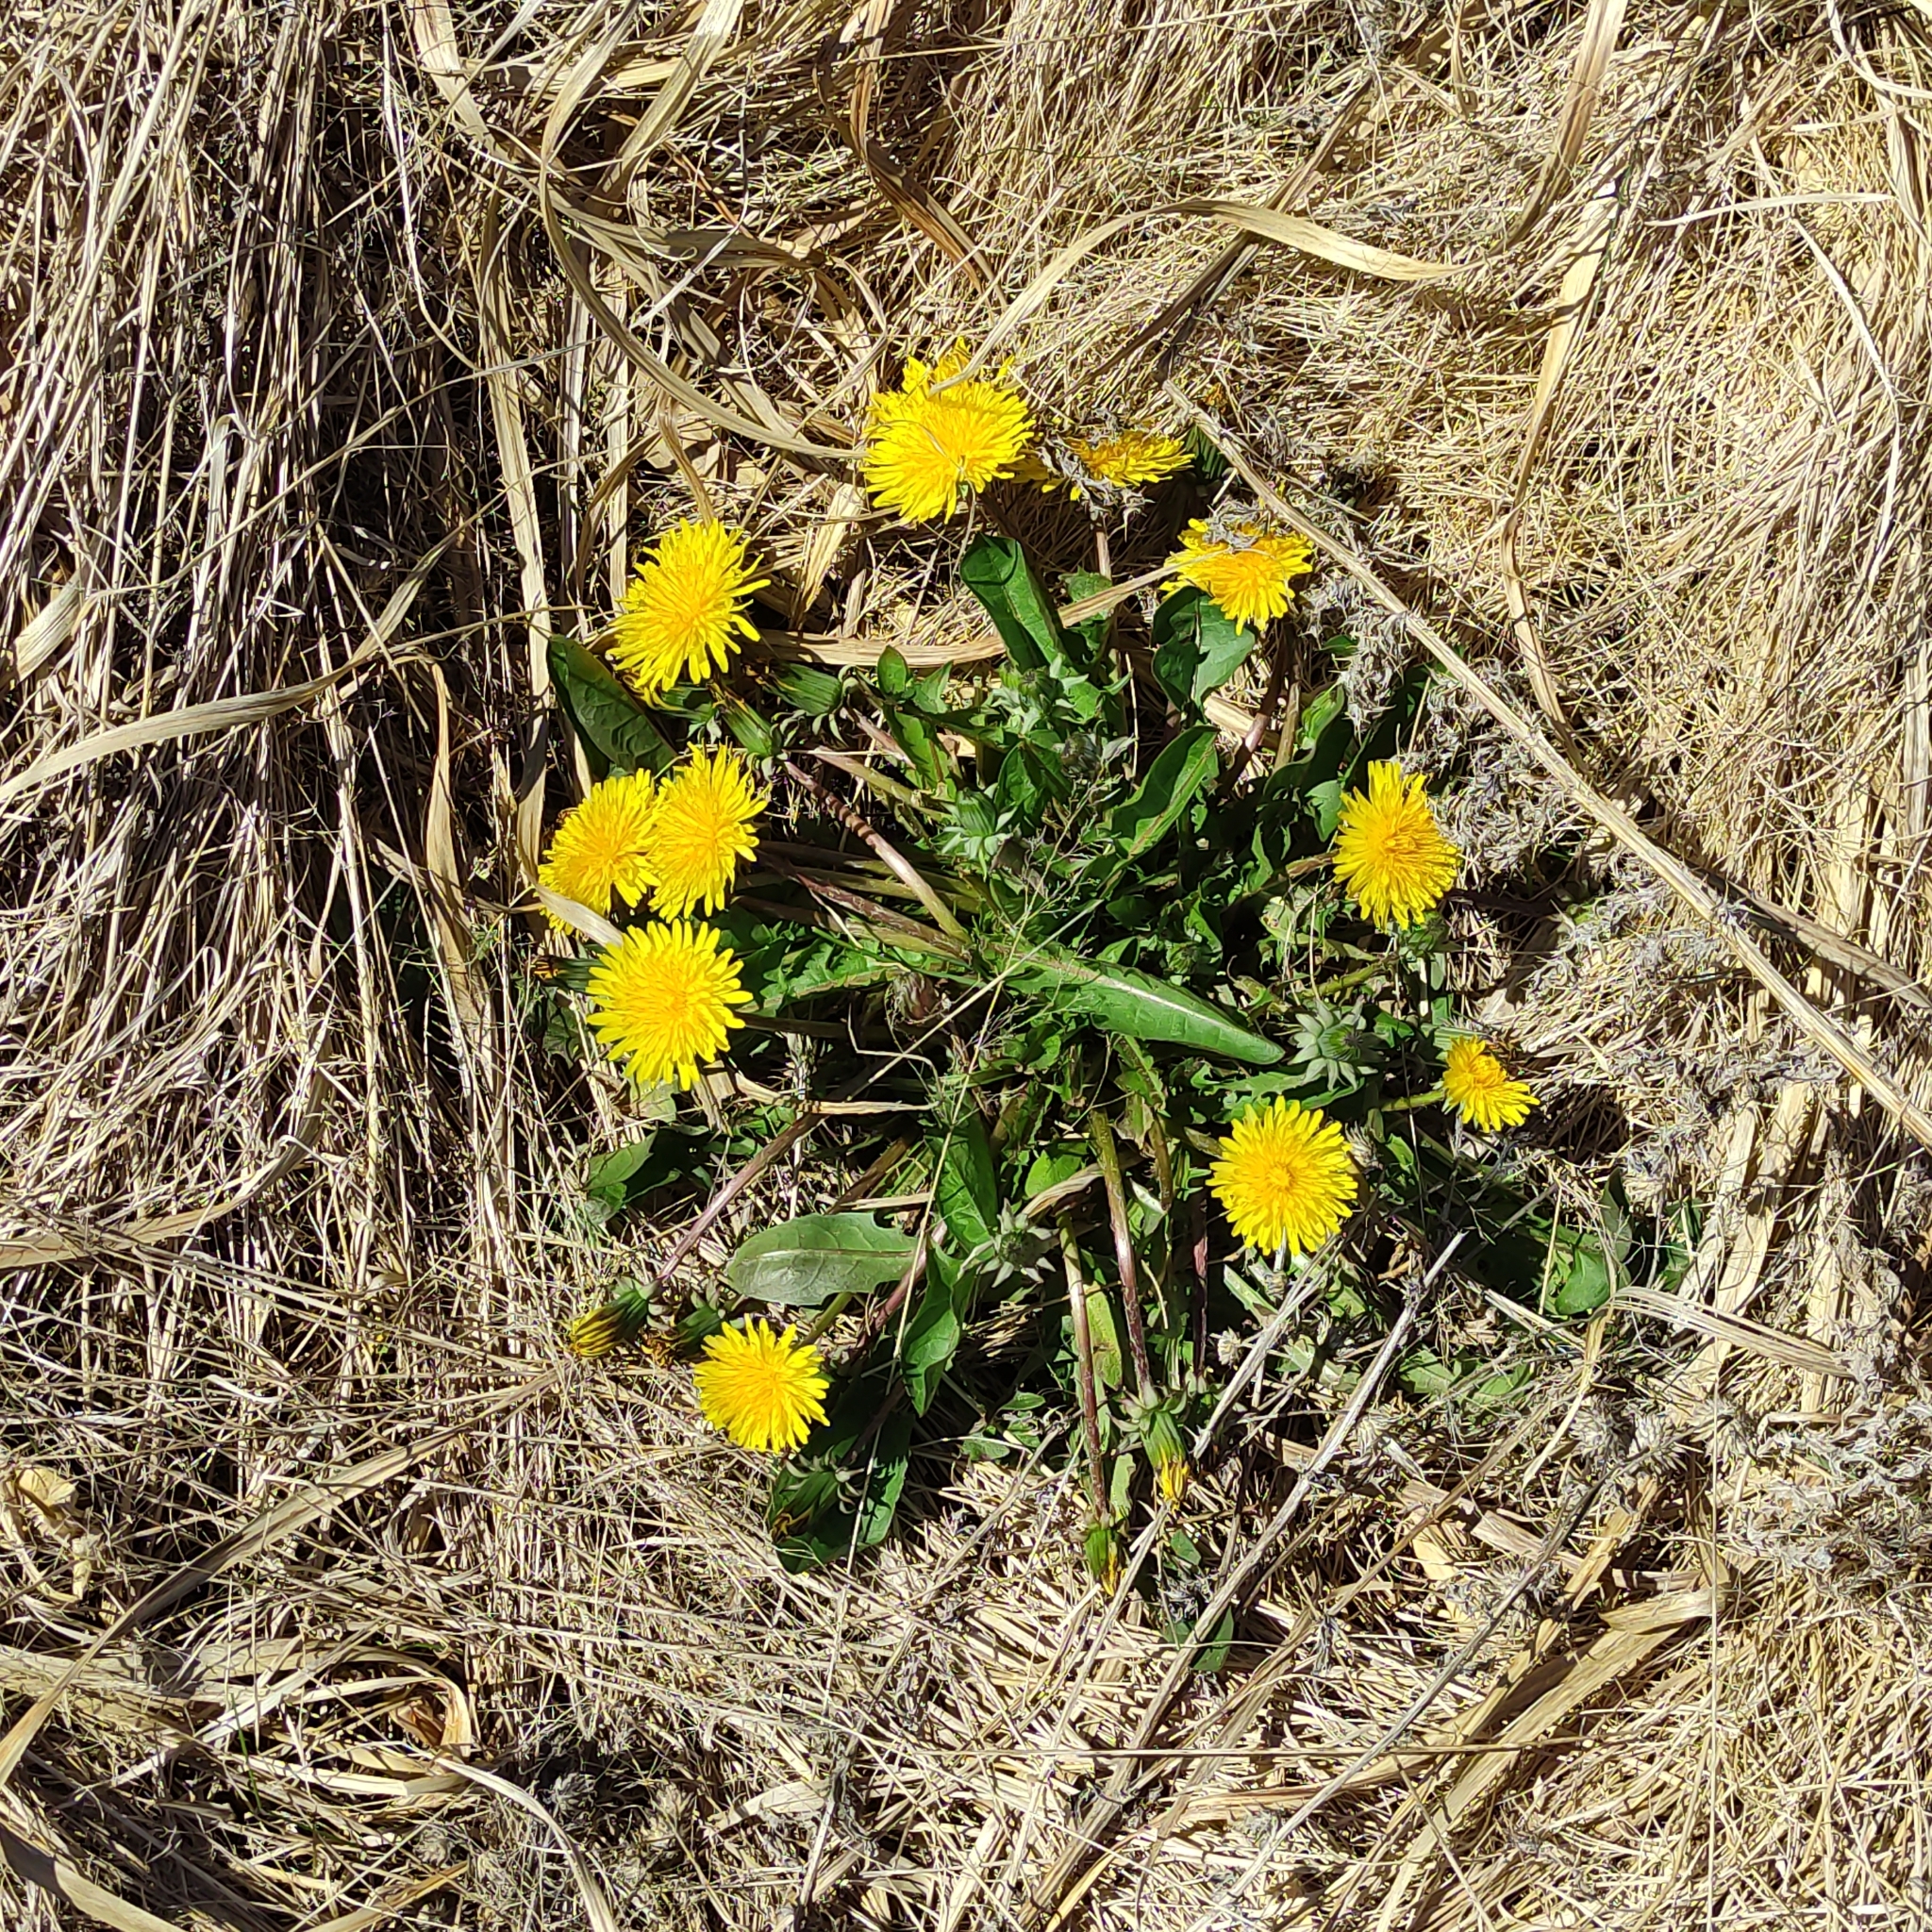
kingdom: Plantae
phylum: Tracheophyta
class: Magnoliopsida
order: Asterales
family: Asteraceae
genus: Taraxacum
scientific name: Taraxacum officinale
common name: Common dandelion
